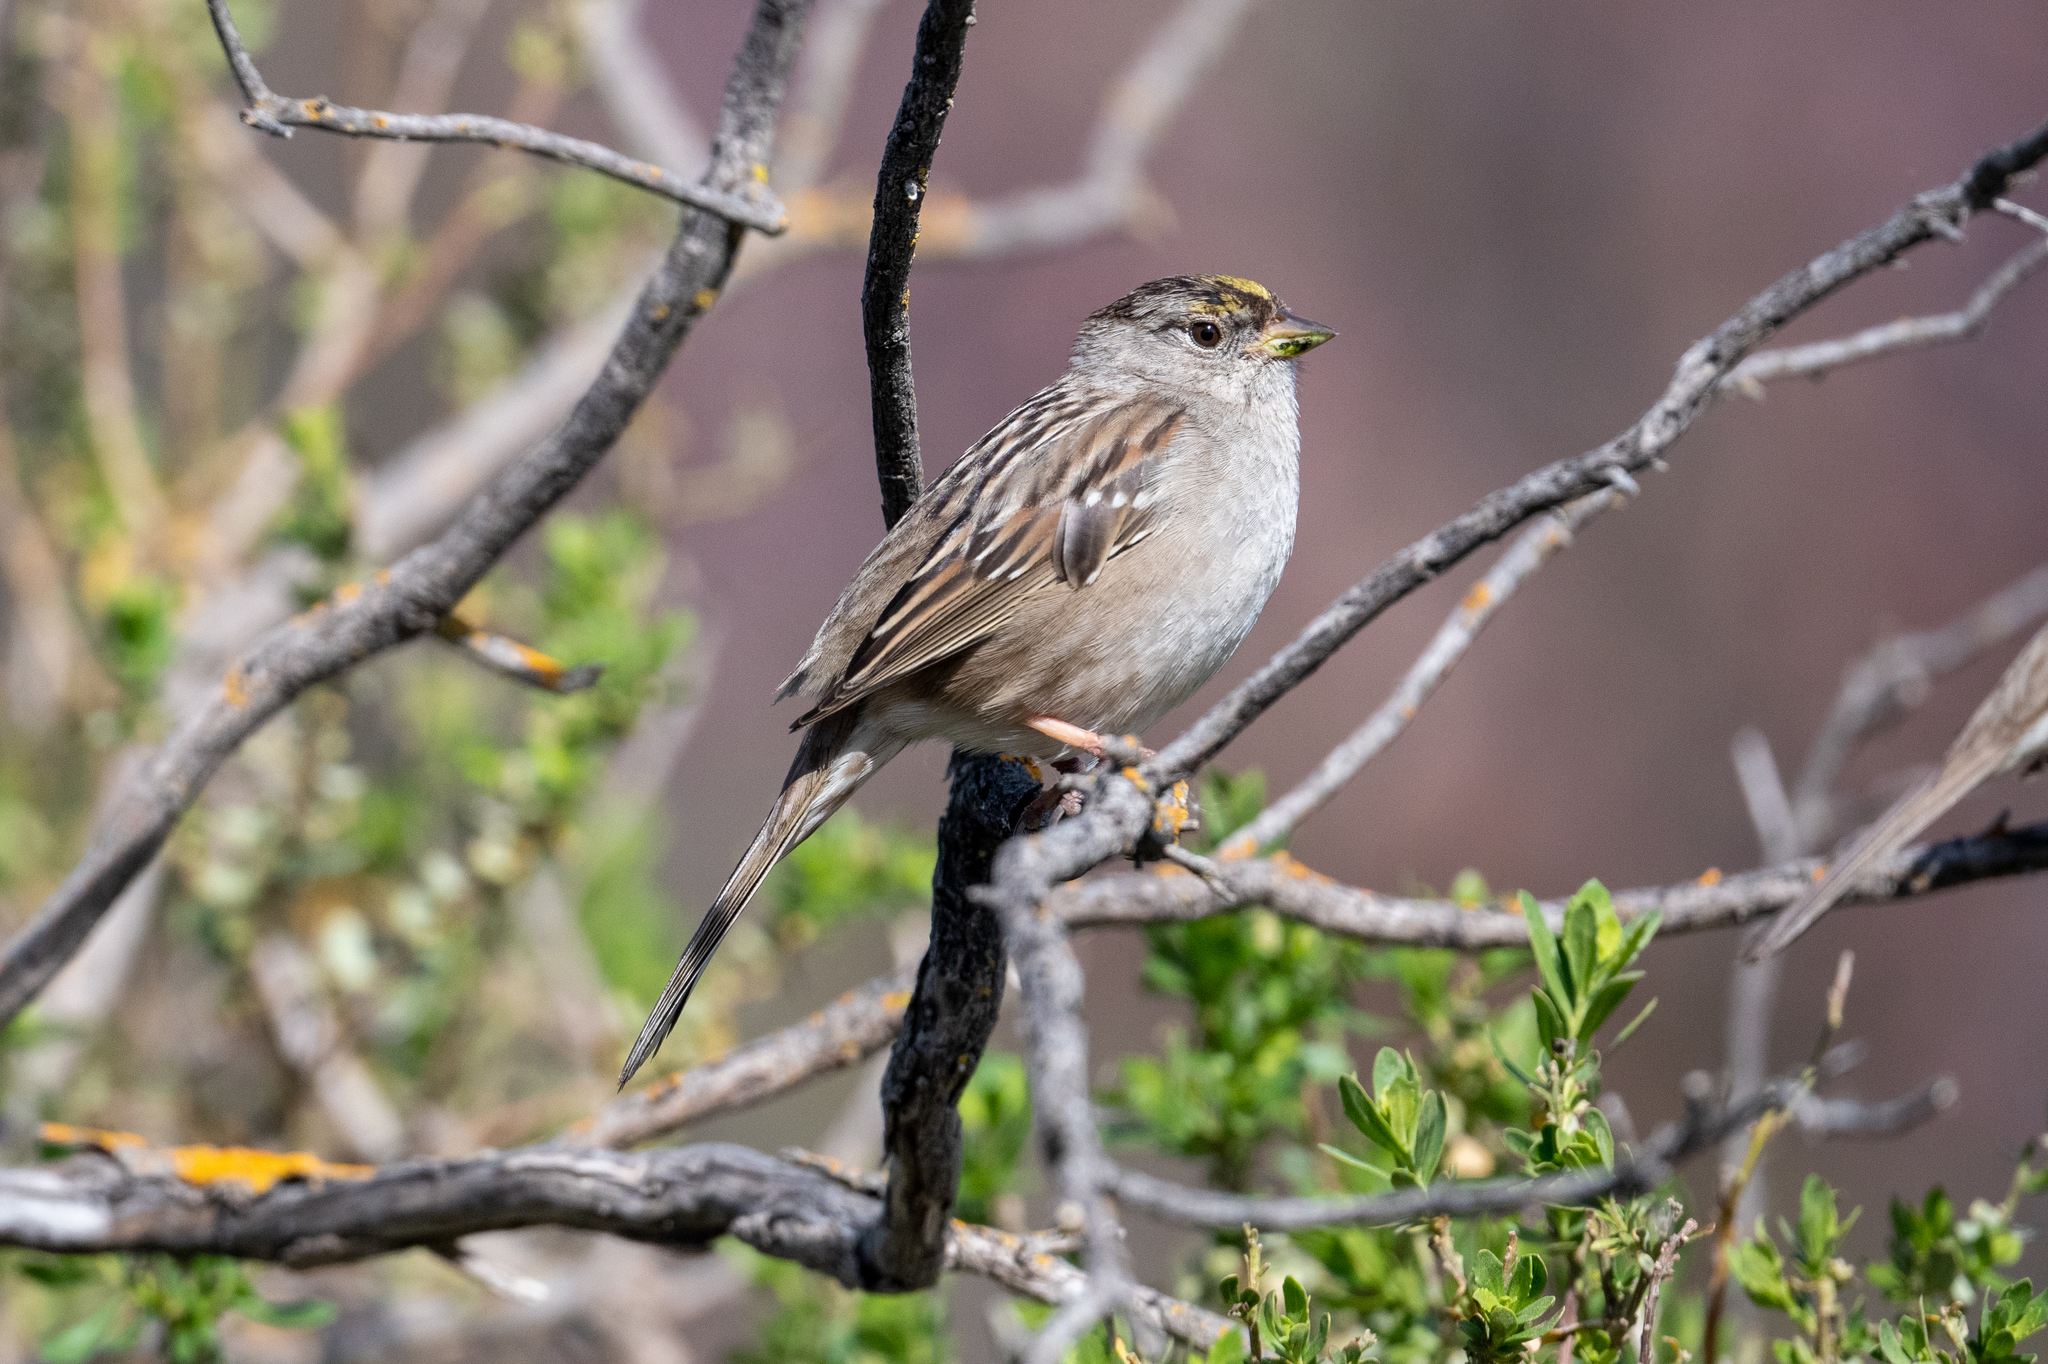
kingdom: Animalia
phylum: Chordata
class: Aves
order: Passeriformes
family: Passerellidae
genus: Zonotrichia
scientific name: Zonotrichia atricapilla
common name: Golden-crowned sparrow
